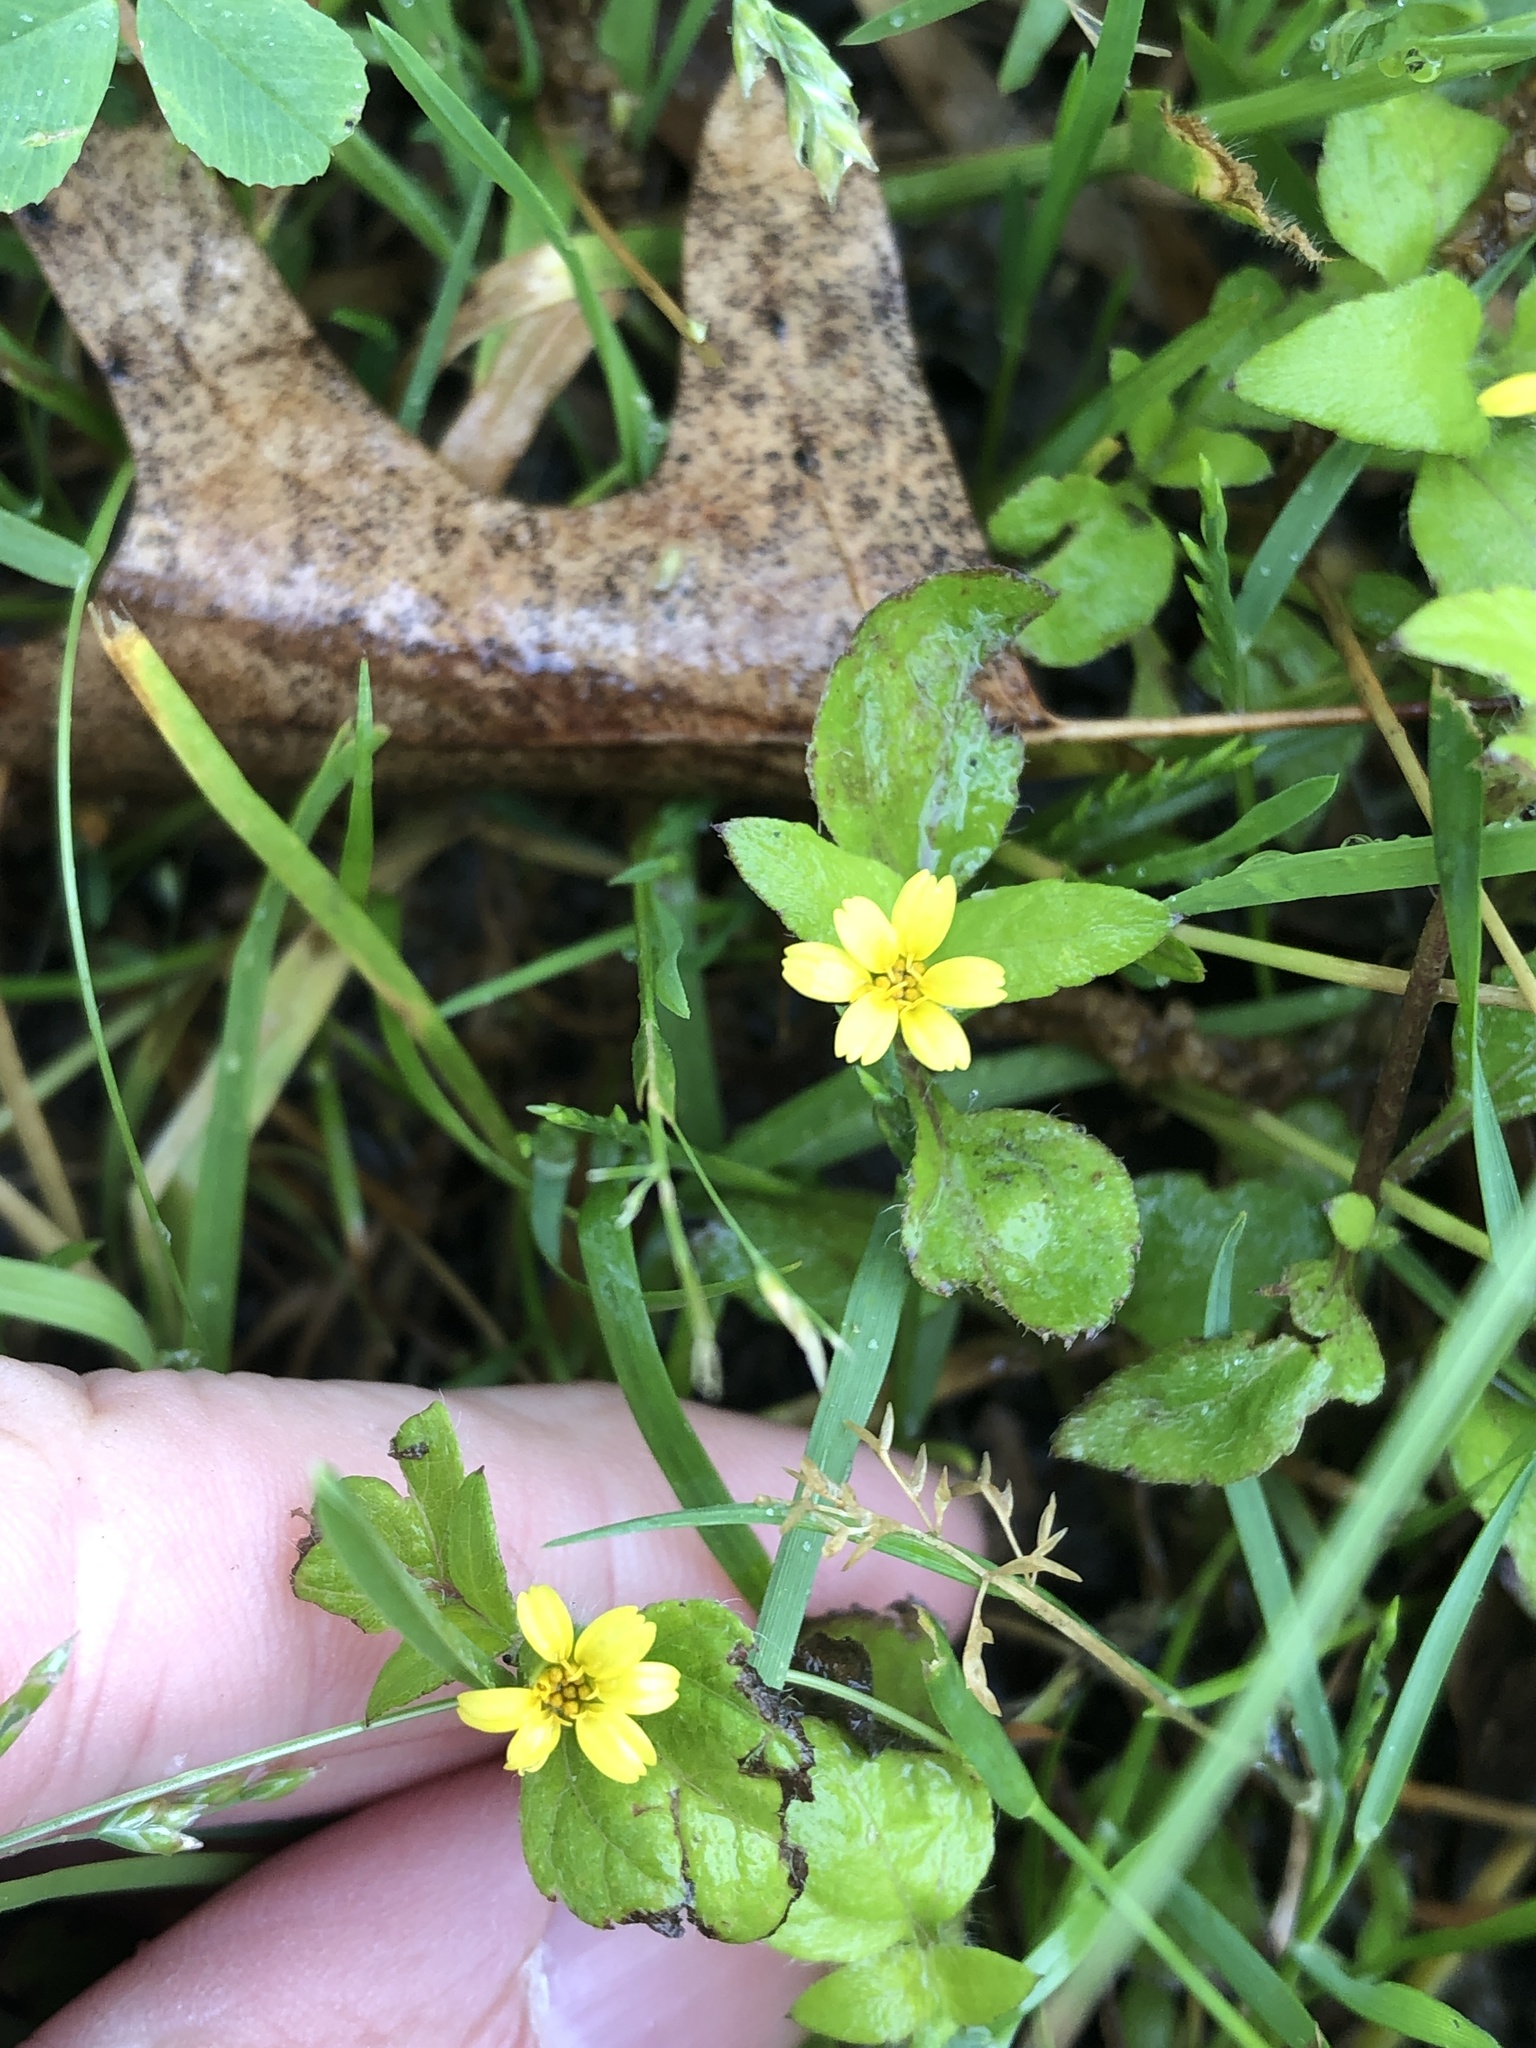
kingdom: Plantae
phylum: Tracheophyta
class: Magnoliopsida
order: Asterales
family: Asteraceae
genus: Calyptocarpus
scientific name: Calyptocarpus vialis
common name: Straggler daisy
